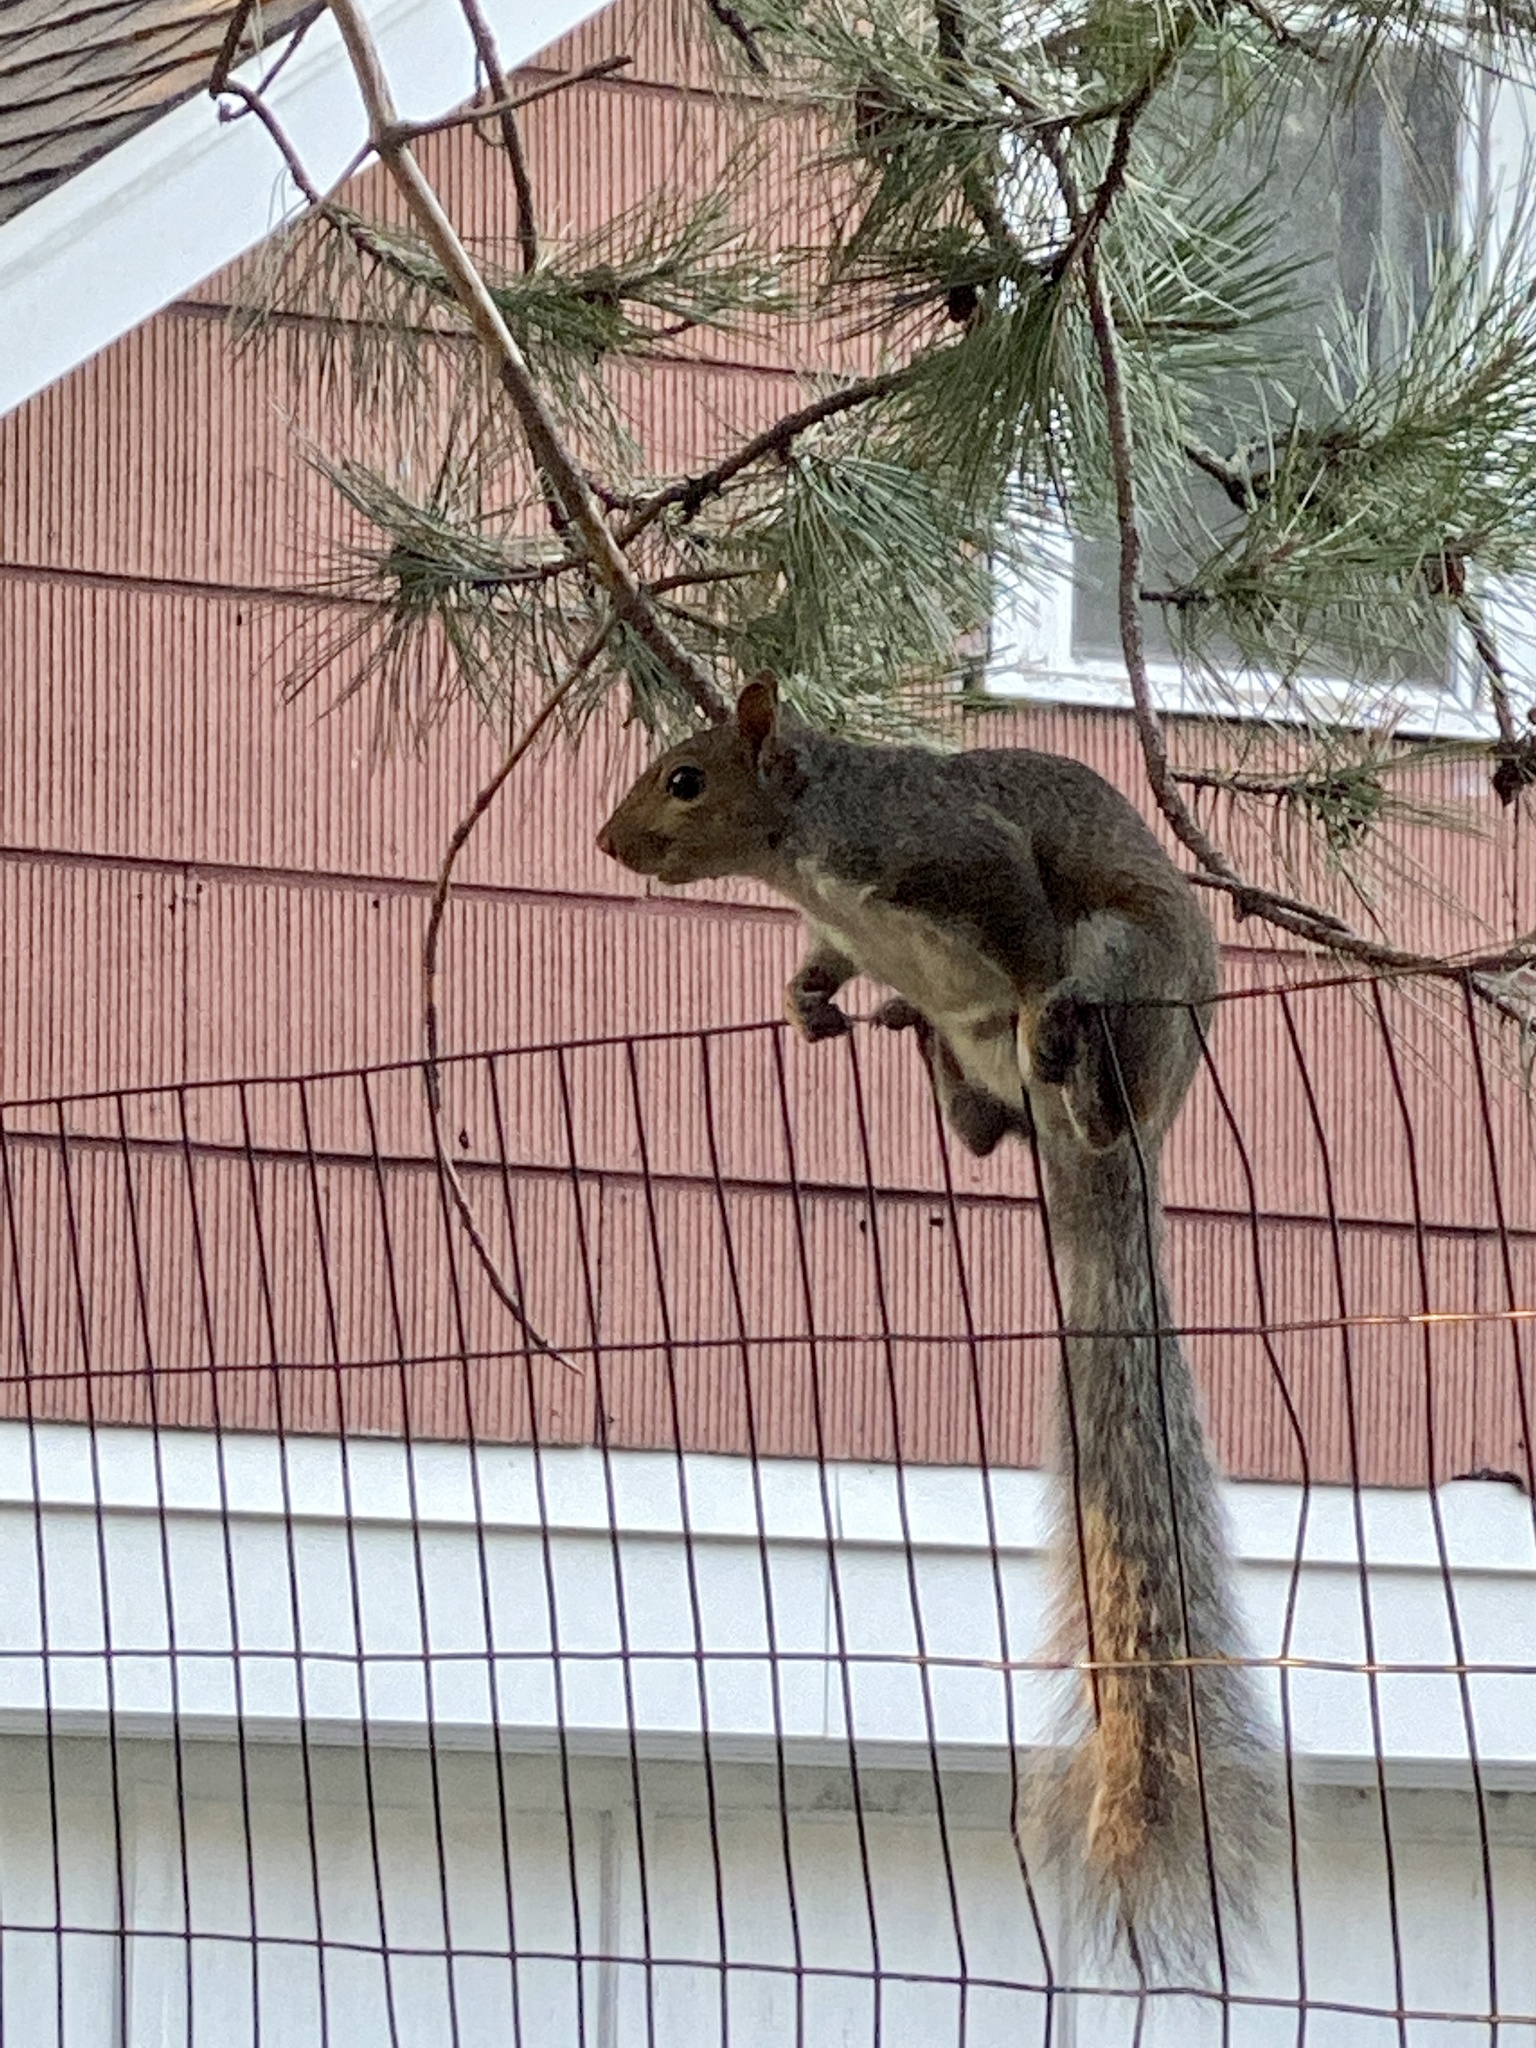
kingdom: Animalia
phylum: Chordata
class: Mammalia
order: Rodentia
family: Sciuridae
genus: Sciurus
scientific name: Sciurus carolinensis
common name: Eastern gray squirrel
